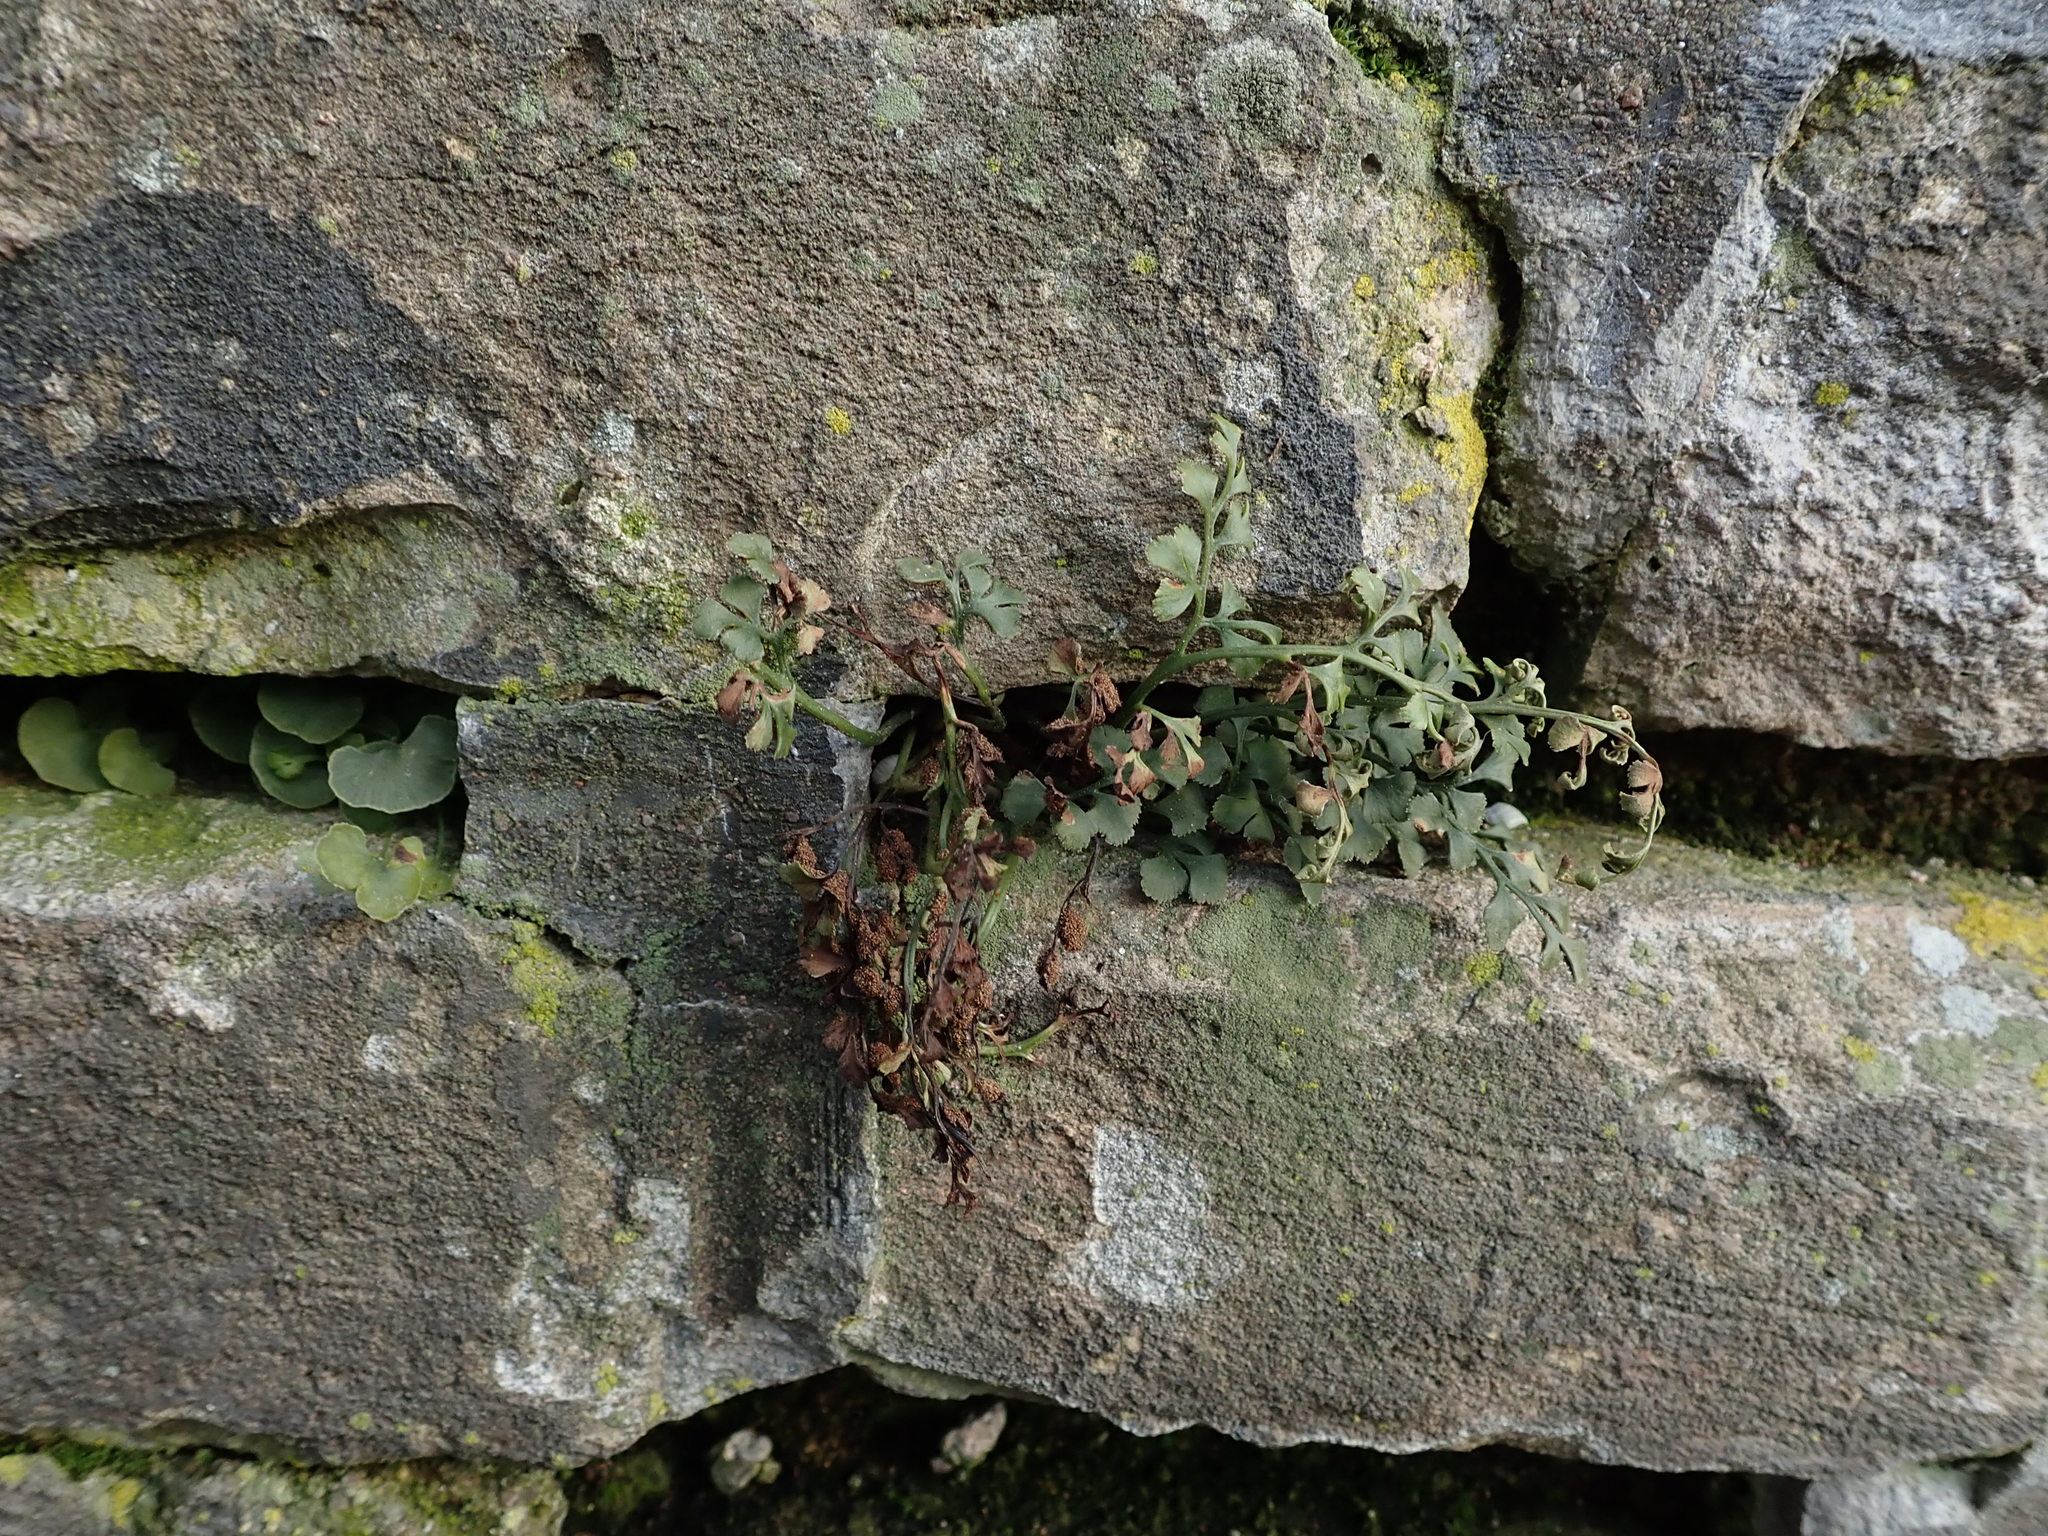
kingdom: Plantae
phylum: Tracheophyta
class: Polypodiopsida
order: Polypodiales
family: Aspleniaceae
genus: Asplenium
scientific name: Asplenium ruta-muraria
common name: Wall-rue
